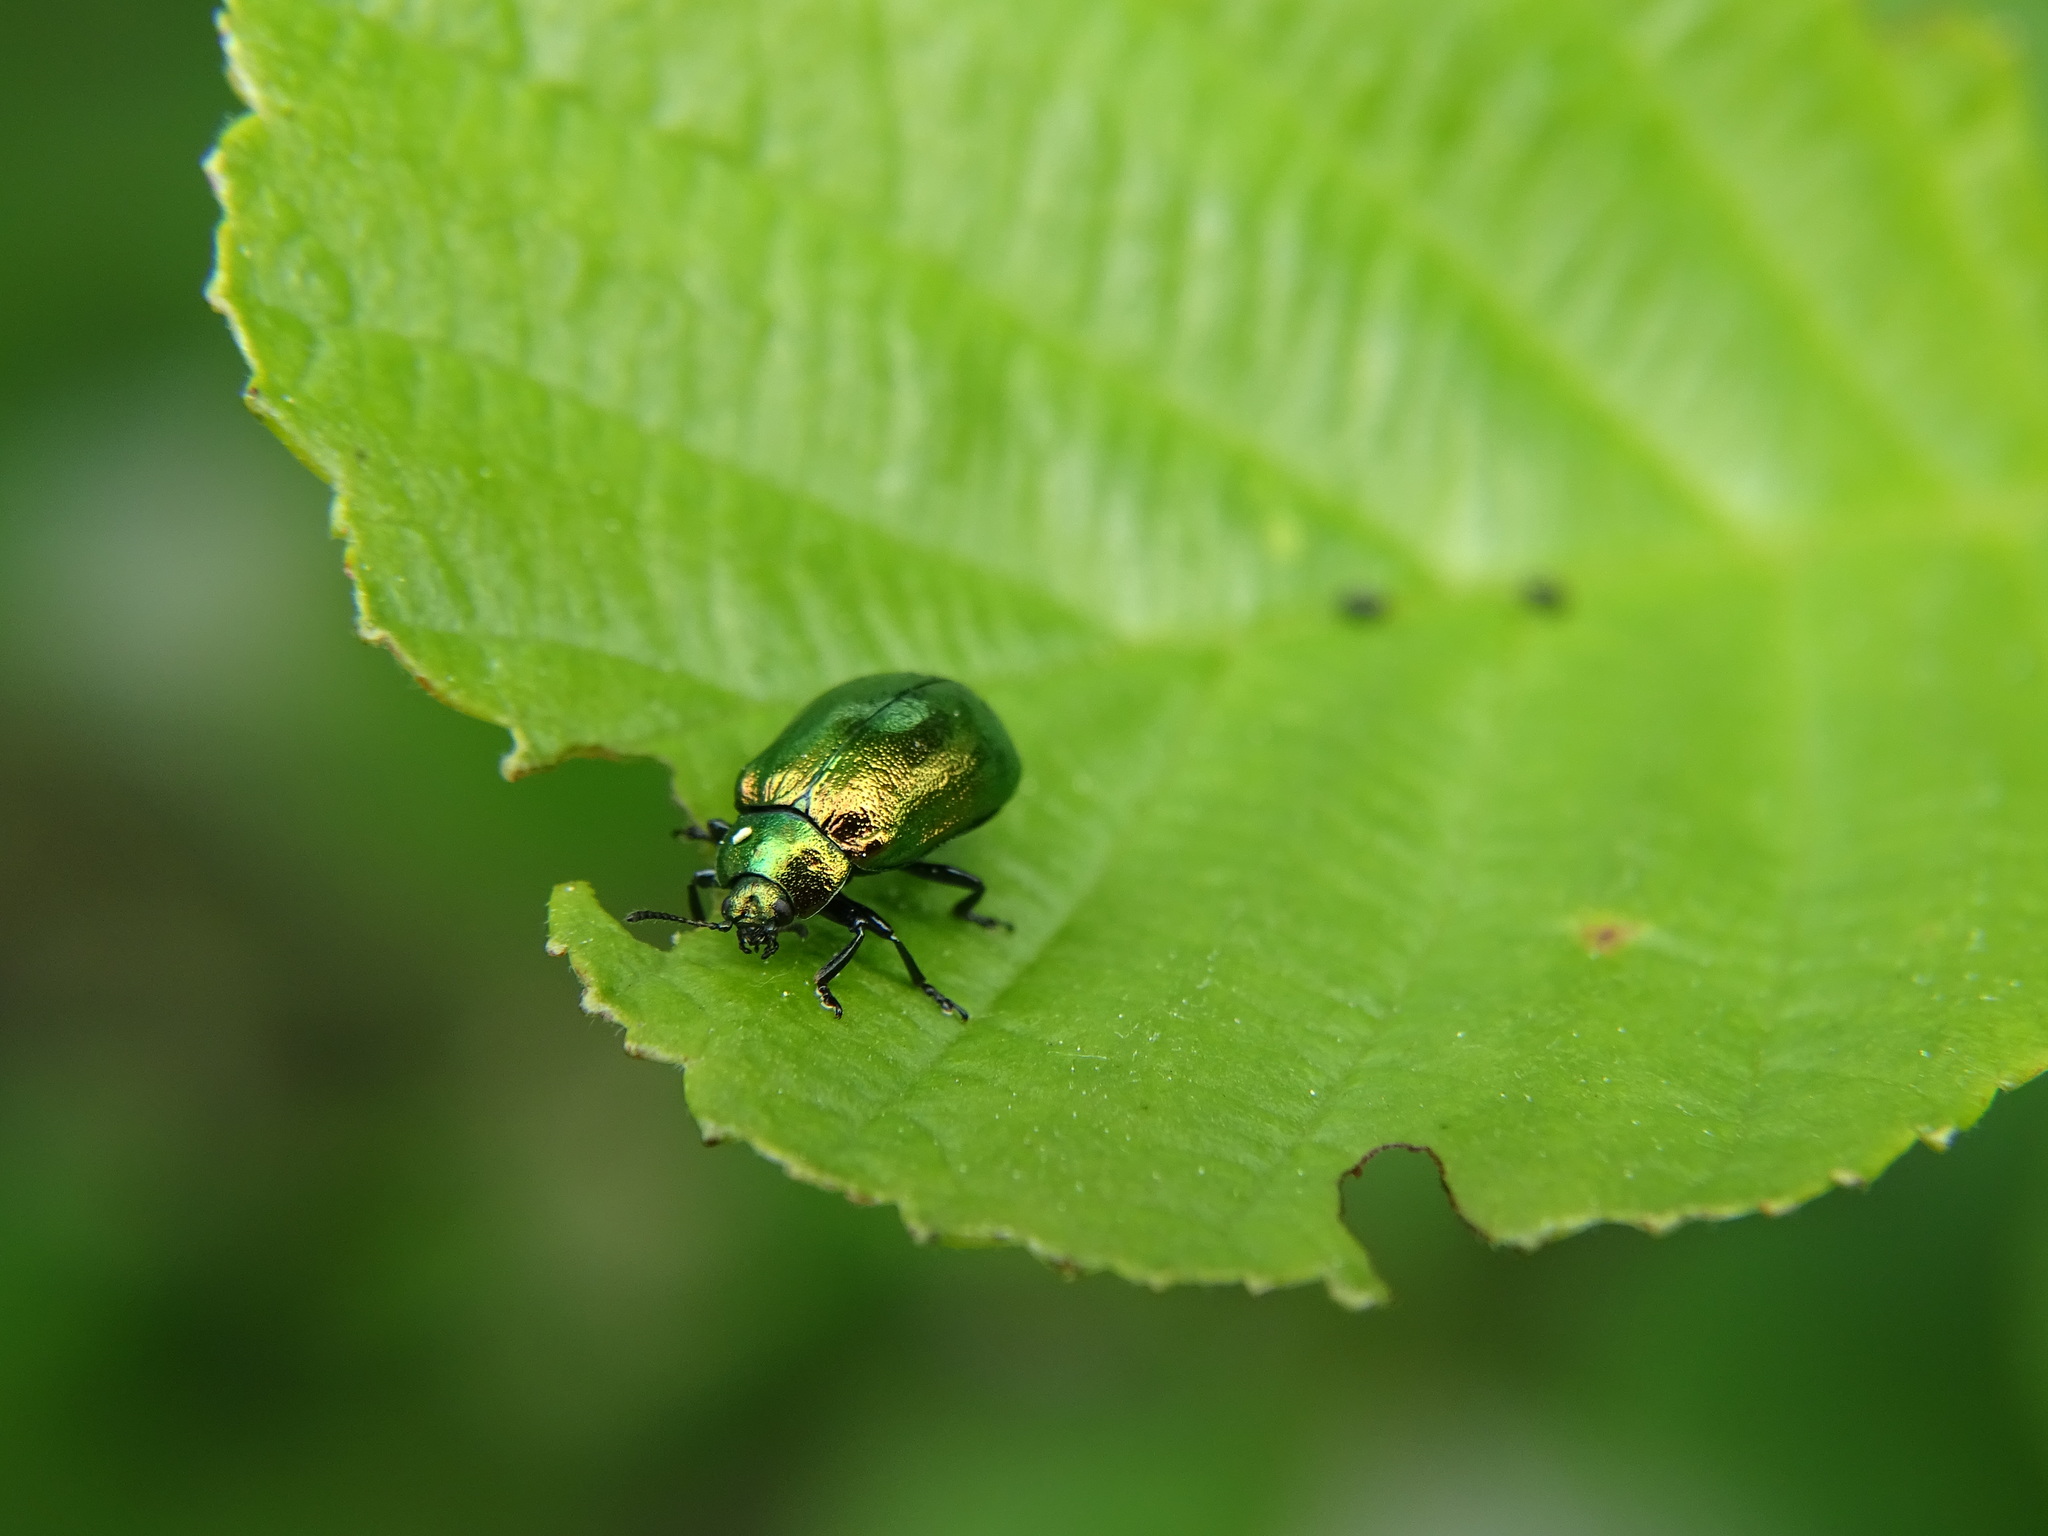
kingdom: Animalia
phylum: Arthropoda
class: Insecta
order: Coleoptera
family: Chrysomelidae
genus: Plagiosterna
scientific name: Plagiosterna aenea
